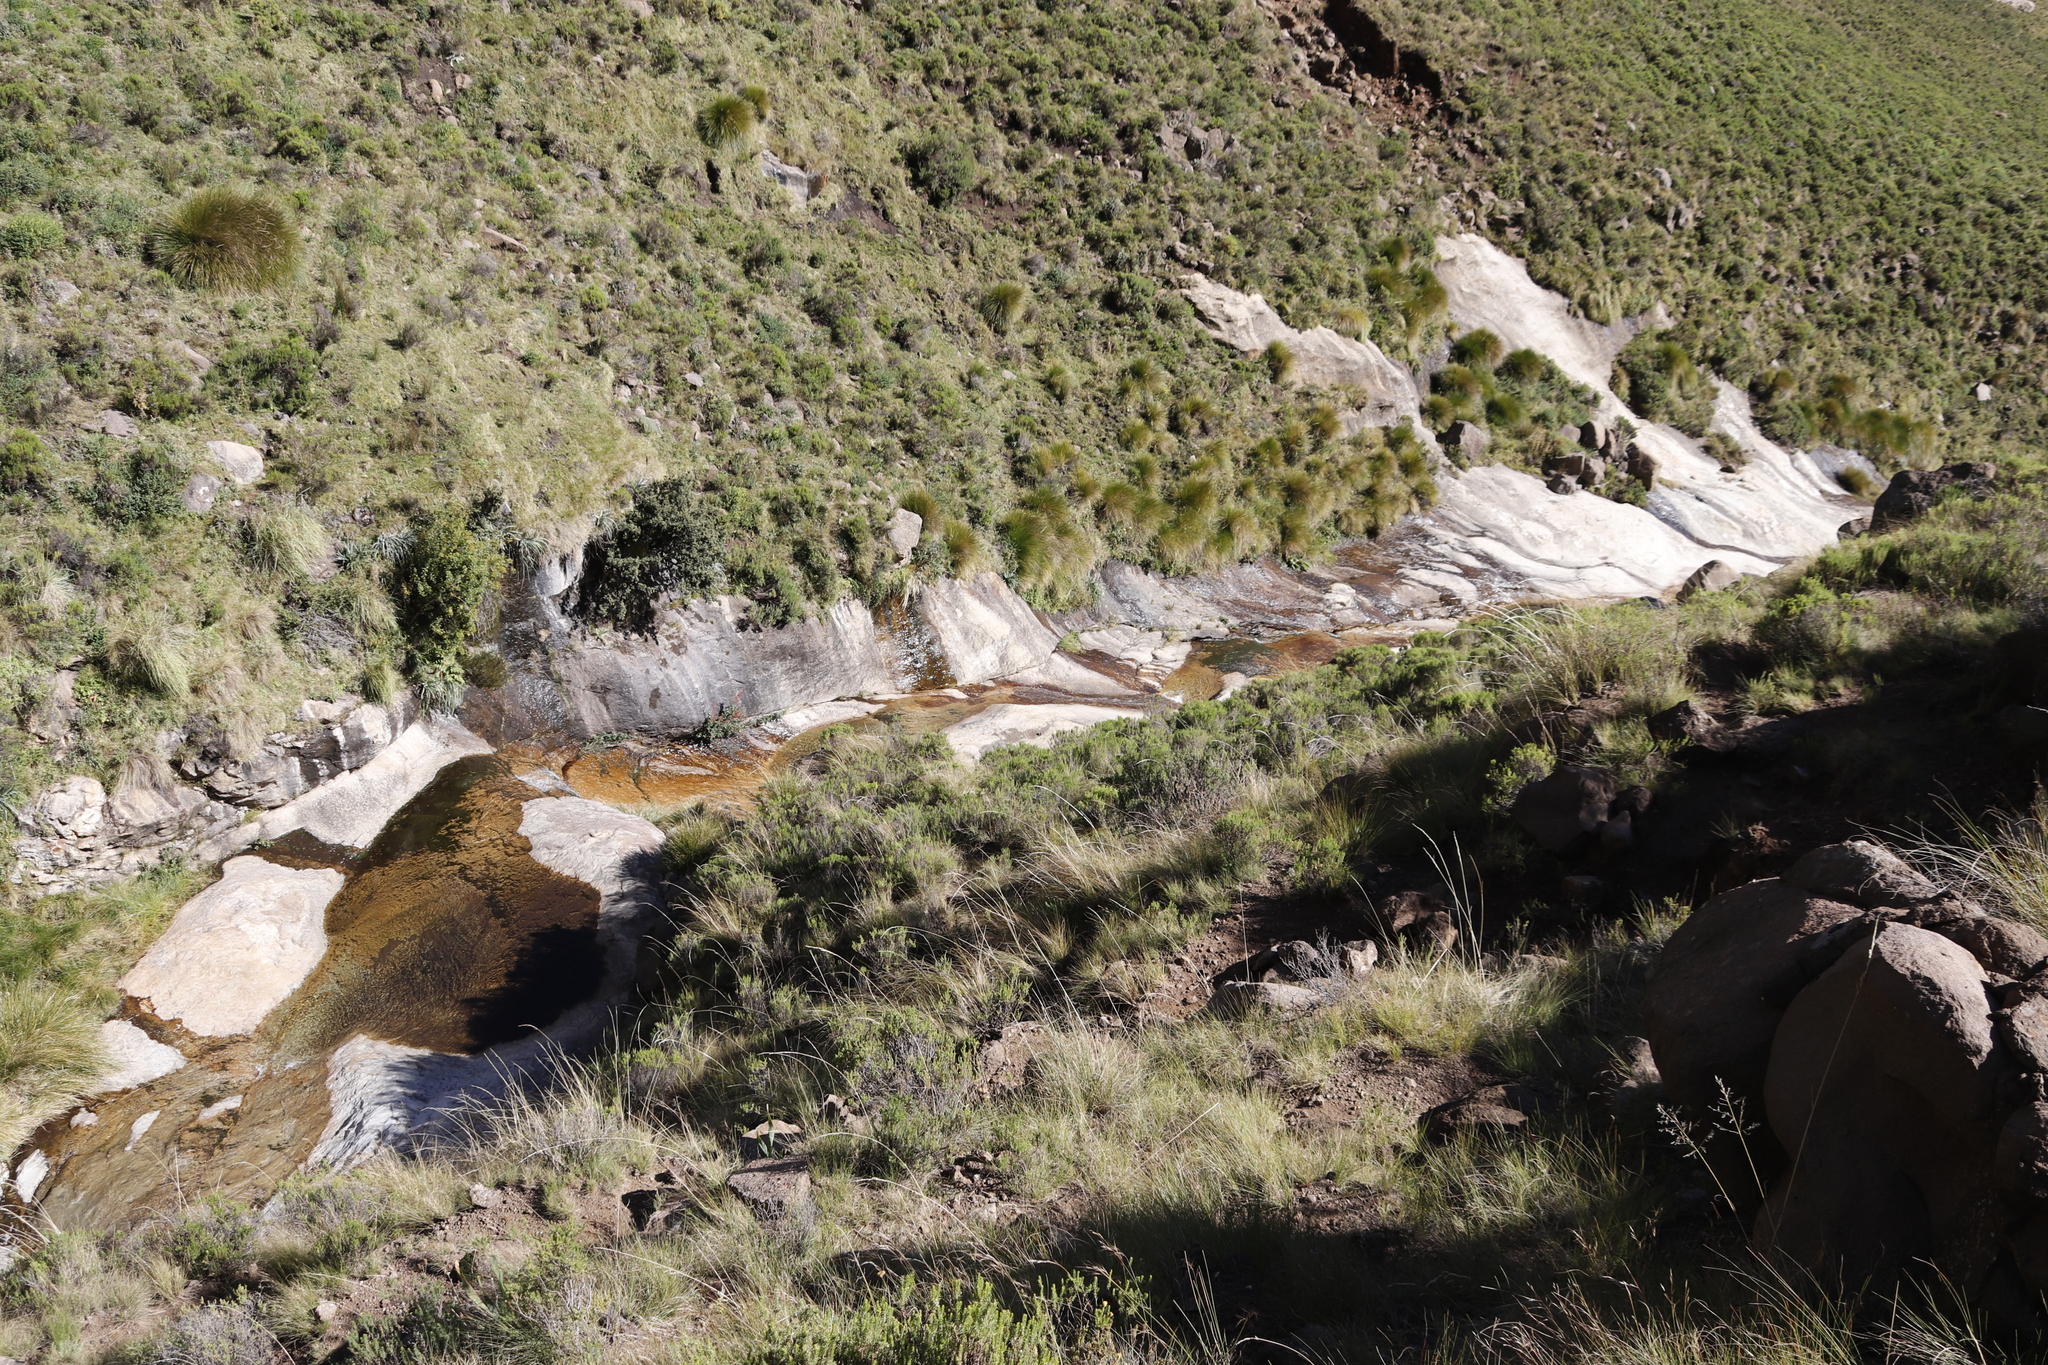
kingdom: Plantae
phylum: Tracheophyta
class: Magnoliopsida
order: Lamiales
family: Scrophulariaceae
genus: Phygelius
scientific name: Phygelius capensis
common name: Cape figwort
